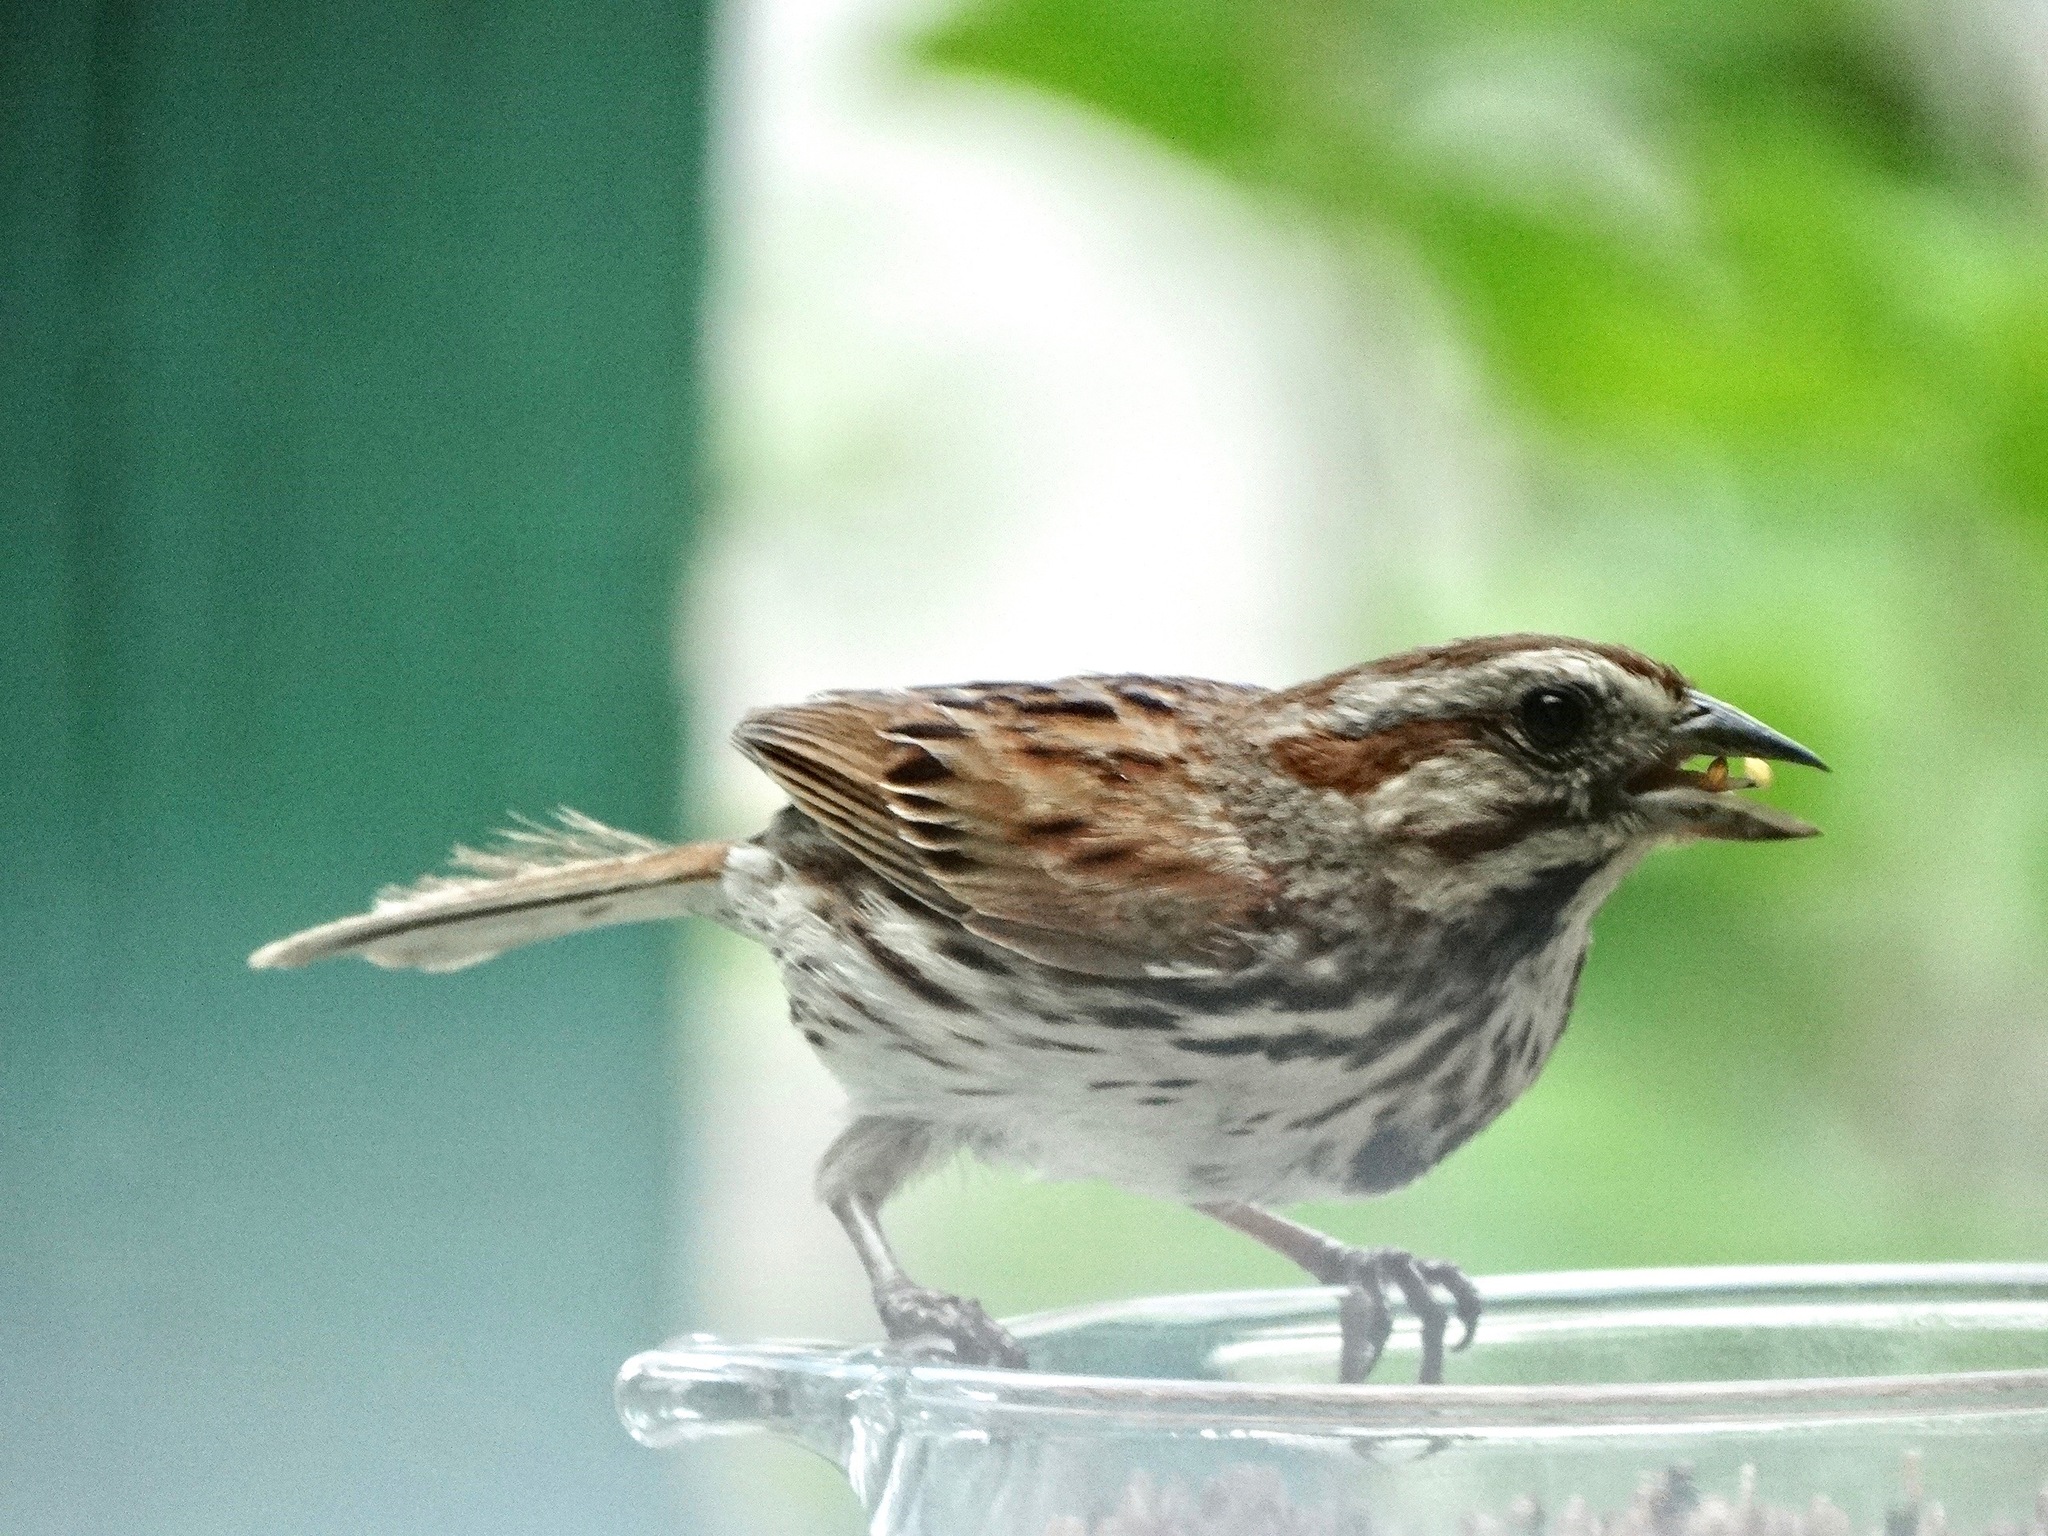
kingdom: Animalia
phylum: Chordata
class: Aves
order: Passeriformes
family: Passerellidae
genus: Melospiza
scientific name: Melospiza melodia
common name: Song sparrow
